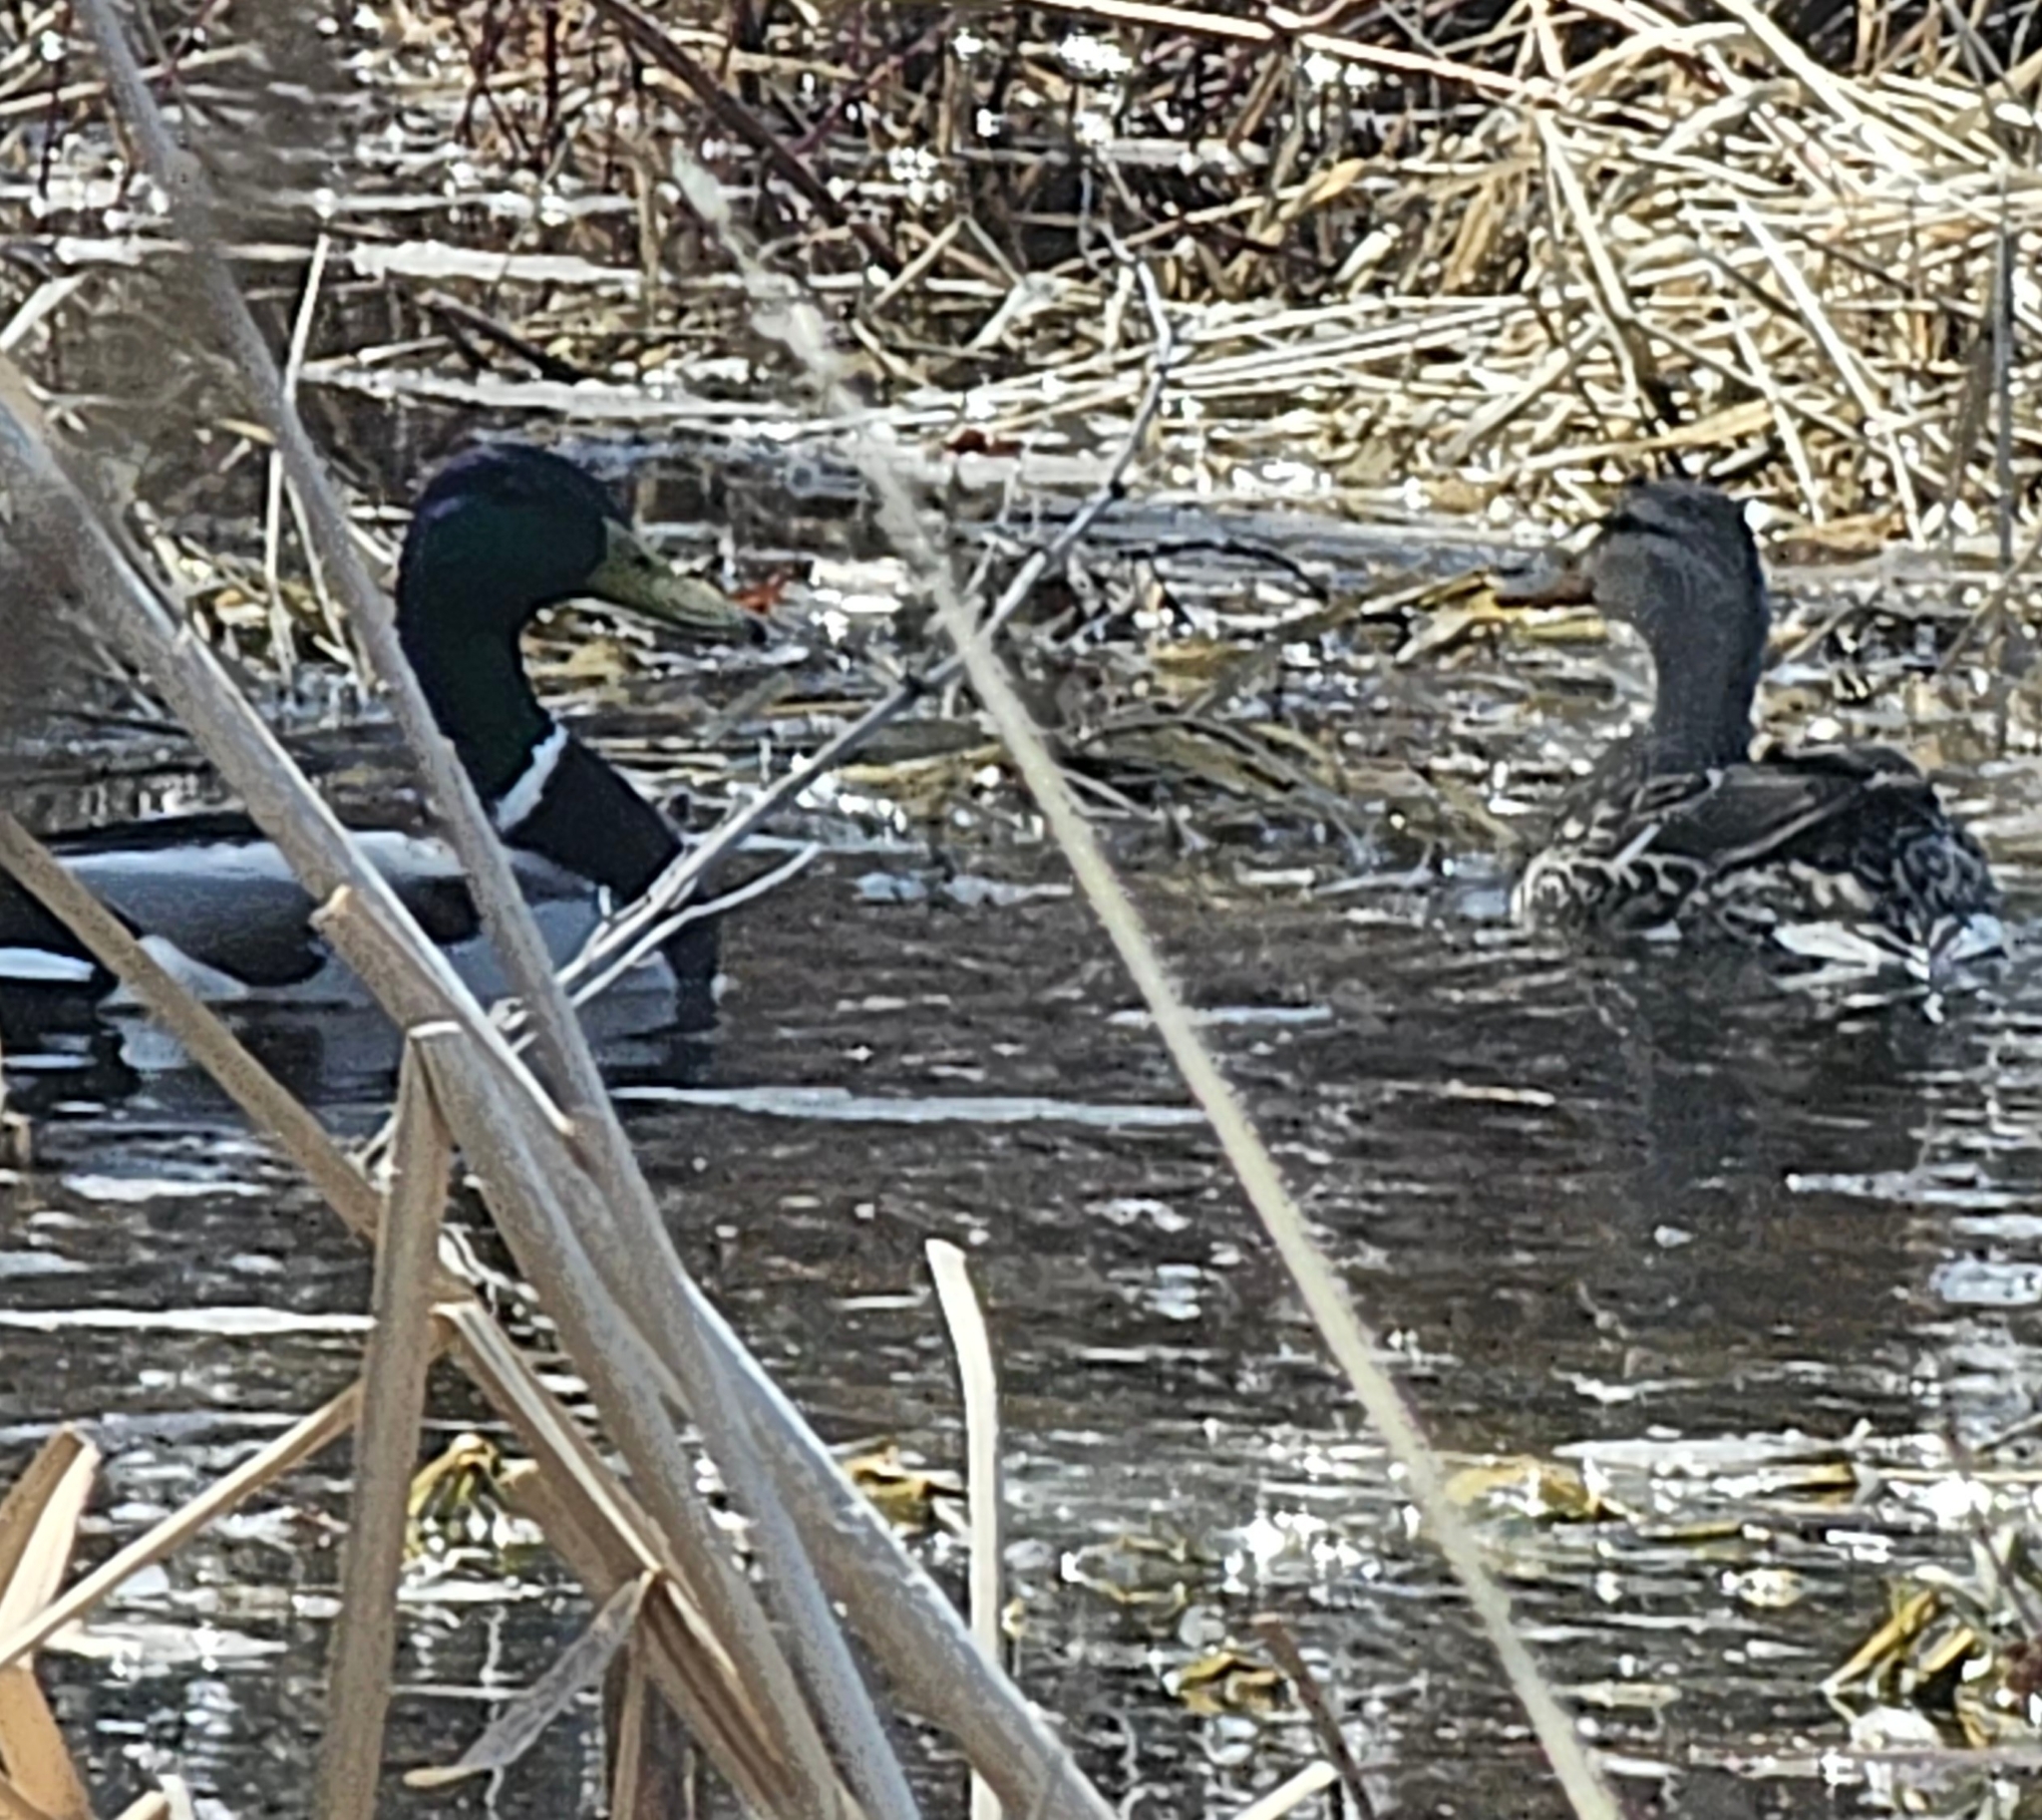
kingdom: Animalia
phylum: Chordata
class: Aves
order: Anseriformes
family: Anatidae
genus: Anas
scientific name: Anas platyrhynchos
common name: Mallard
